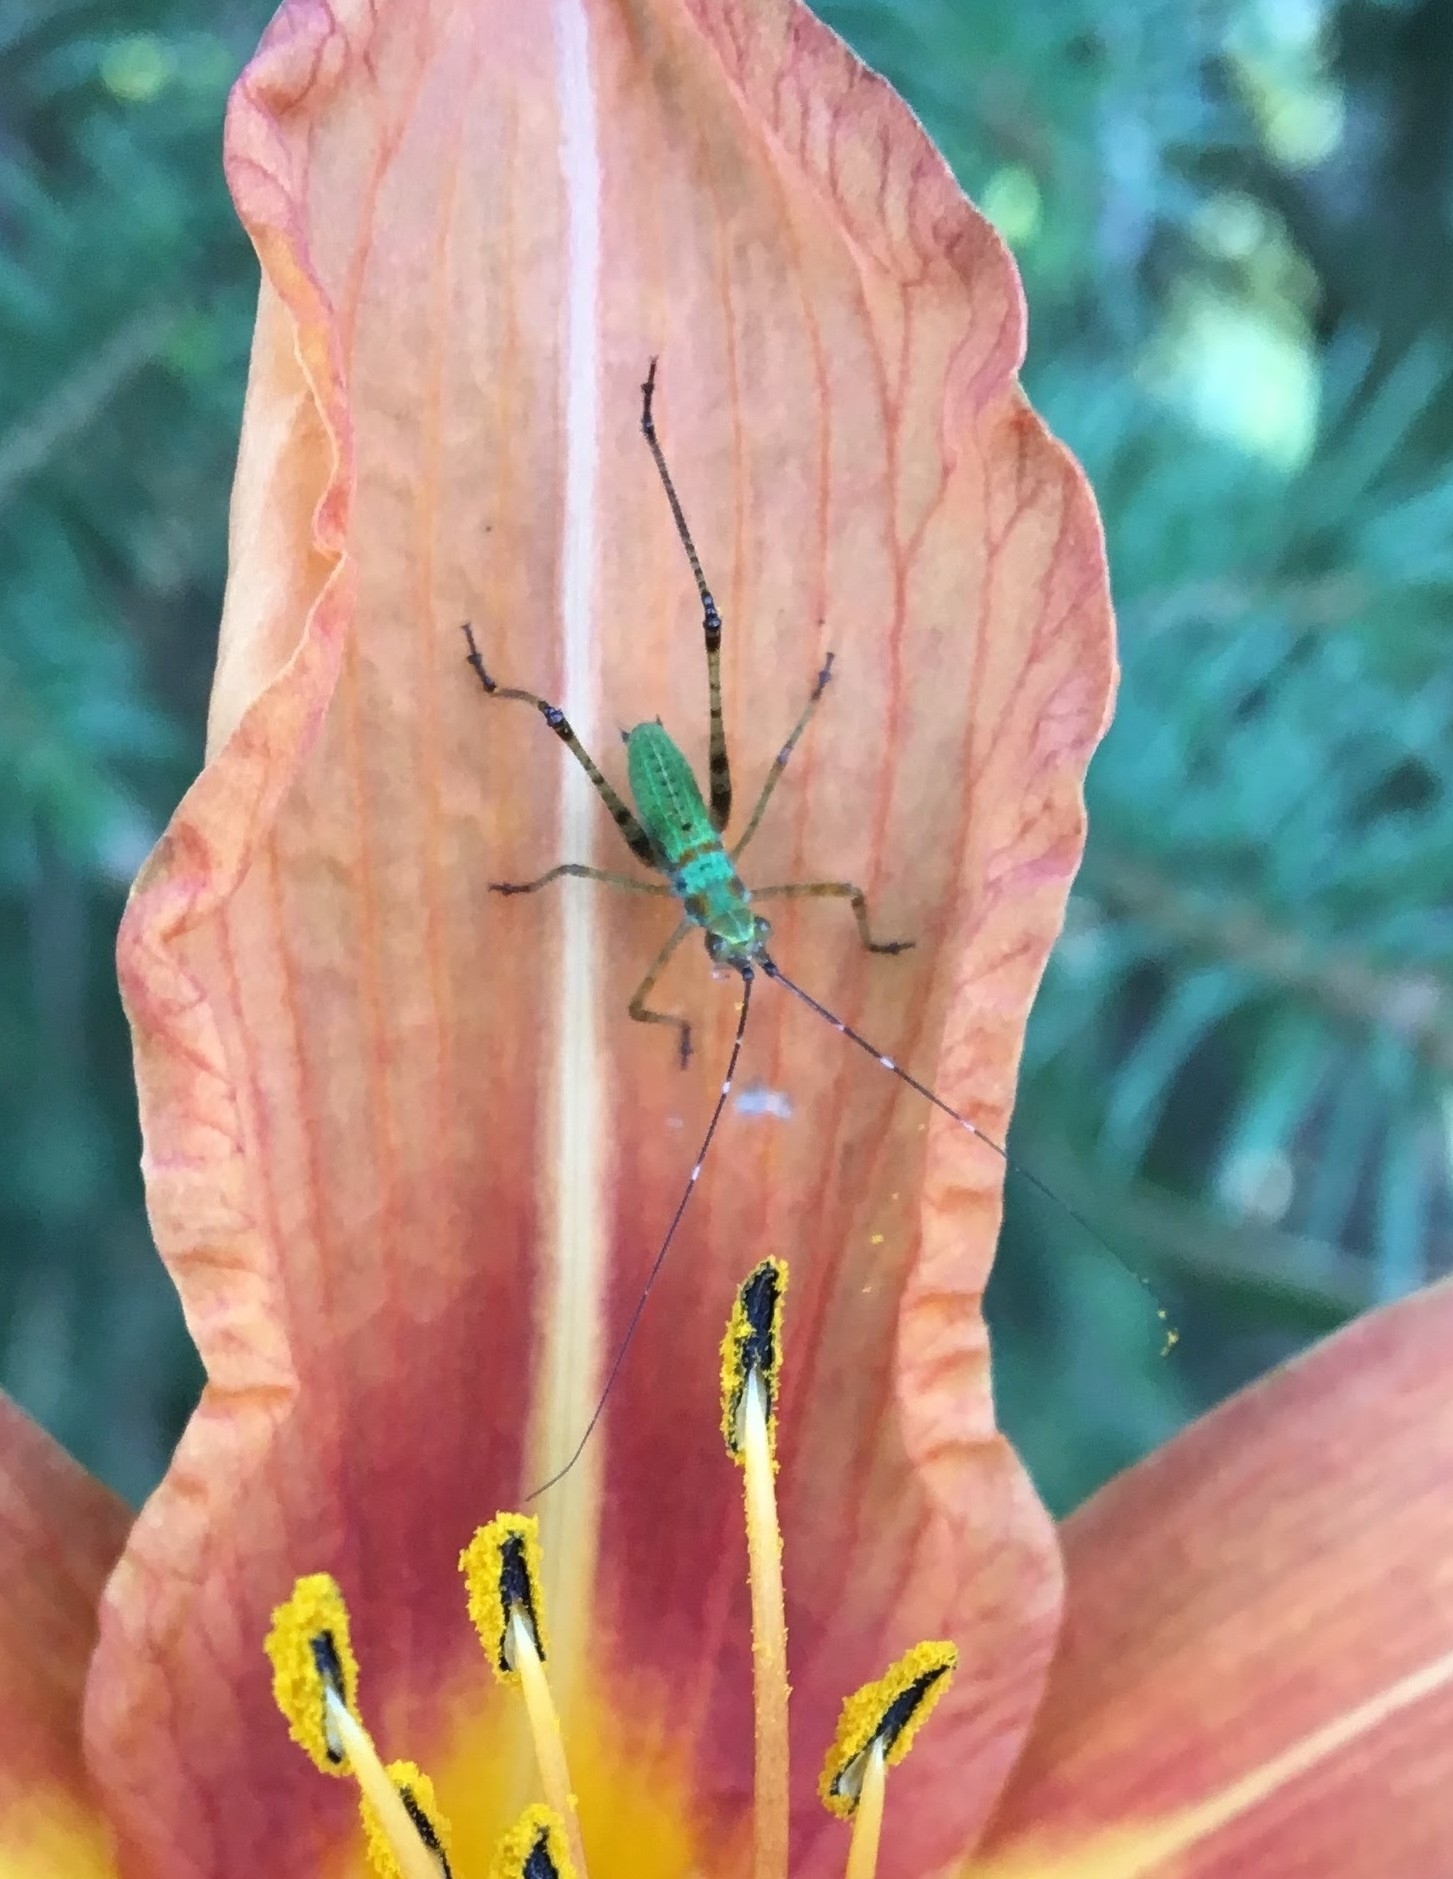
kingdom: Animalia
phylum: Arthropoda
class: Insecta
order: Orthoptera
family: Tettigoniidae
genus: Scudderia
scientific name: Scudderia furcata
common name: Fork-tailed bush katydid
